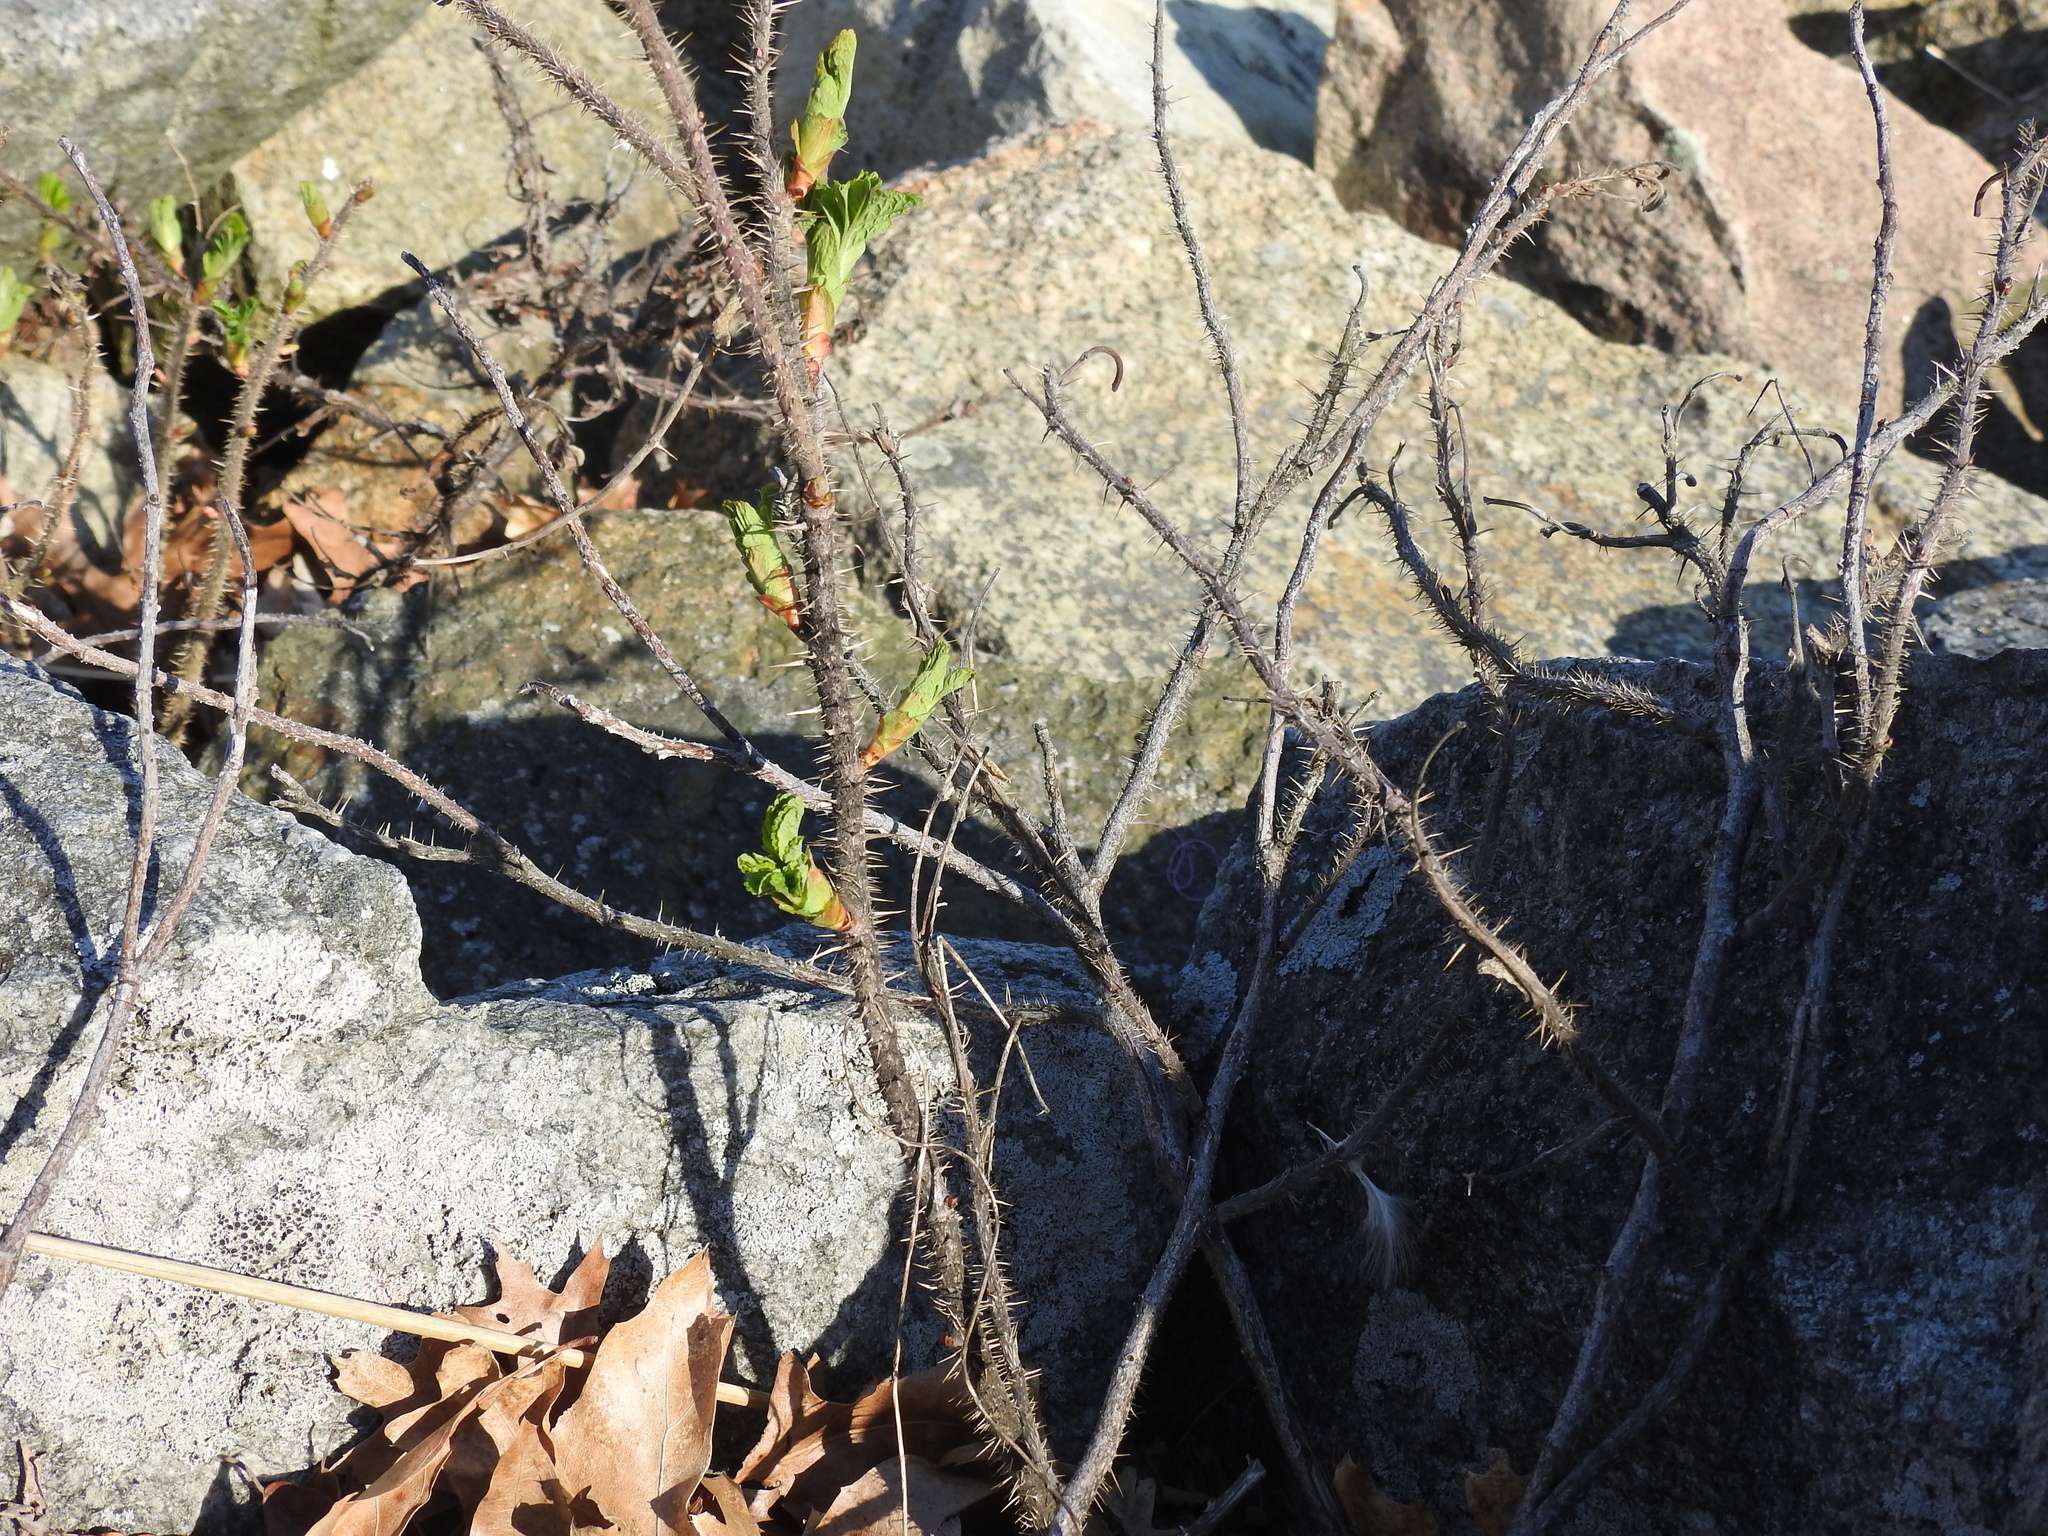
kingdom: Plantae
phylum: Tracheophyta
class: Magnoliopsida
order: Rosales
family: Rosaceae
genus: Rosa
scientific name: Rosa rugosa
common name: Japanese rose
